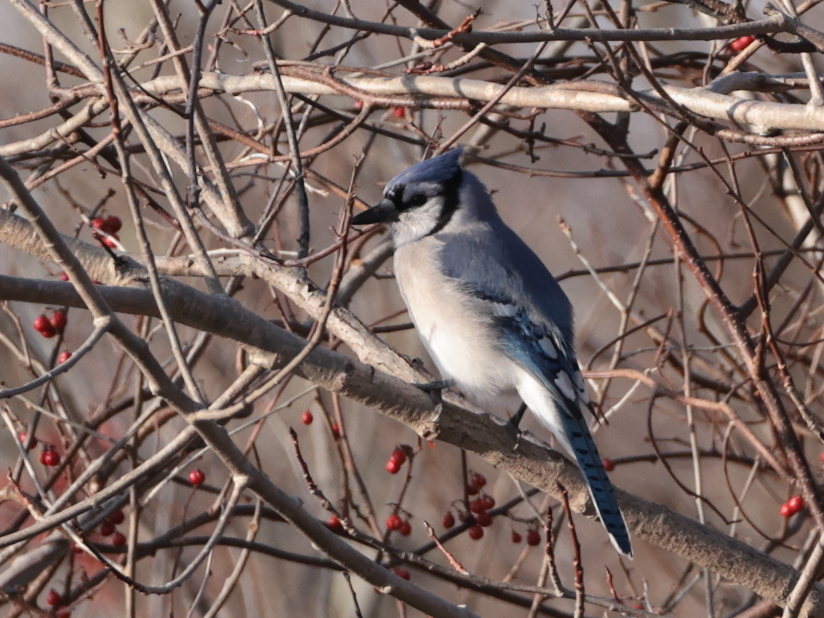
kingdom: Animalia
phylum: Chordata
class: Aves
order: Passeriformes
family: Corvidae
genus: Cyanocitta
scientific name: Cyanocitta cristata
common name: Blue jay
